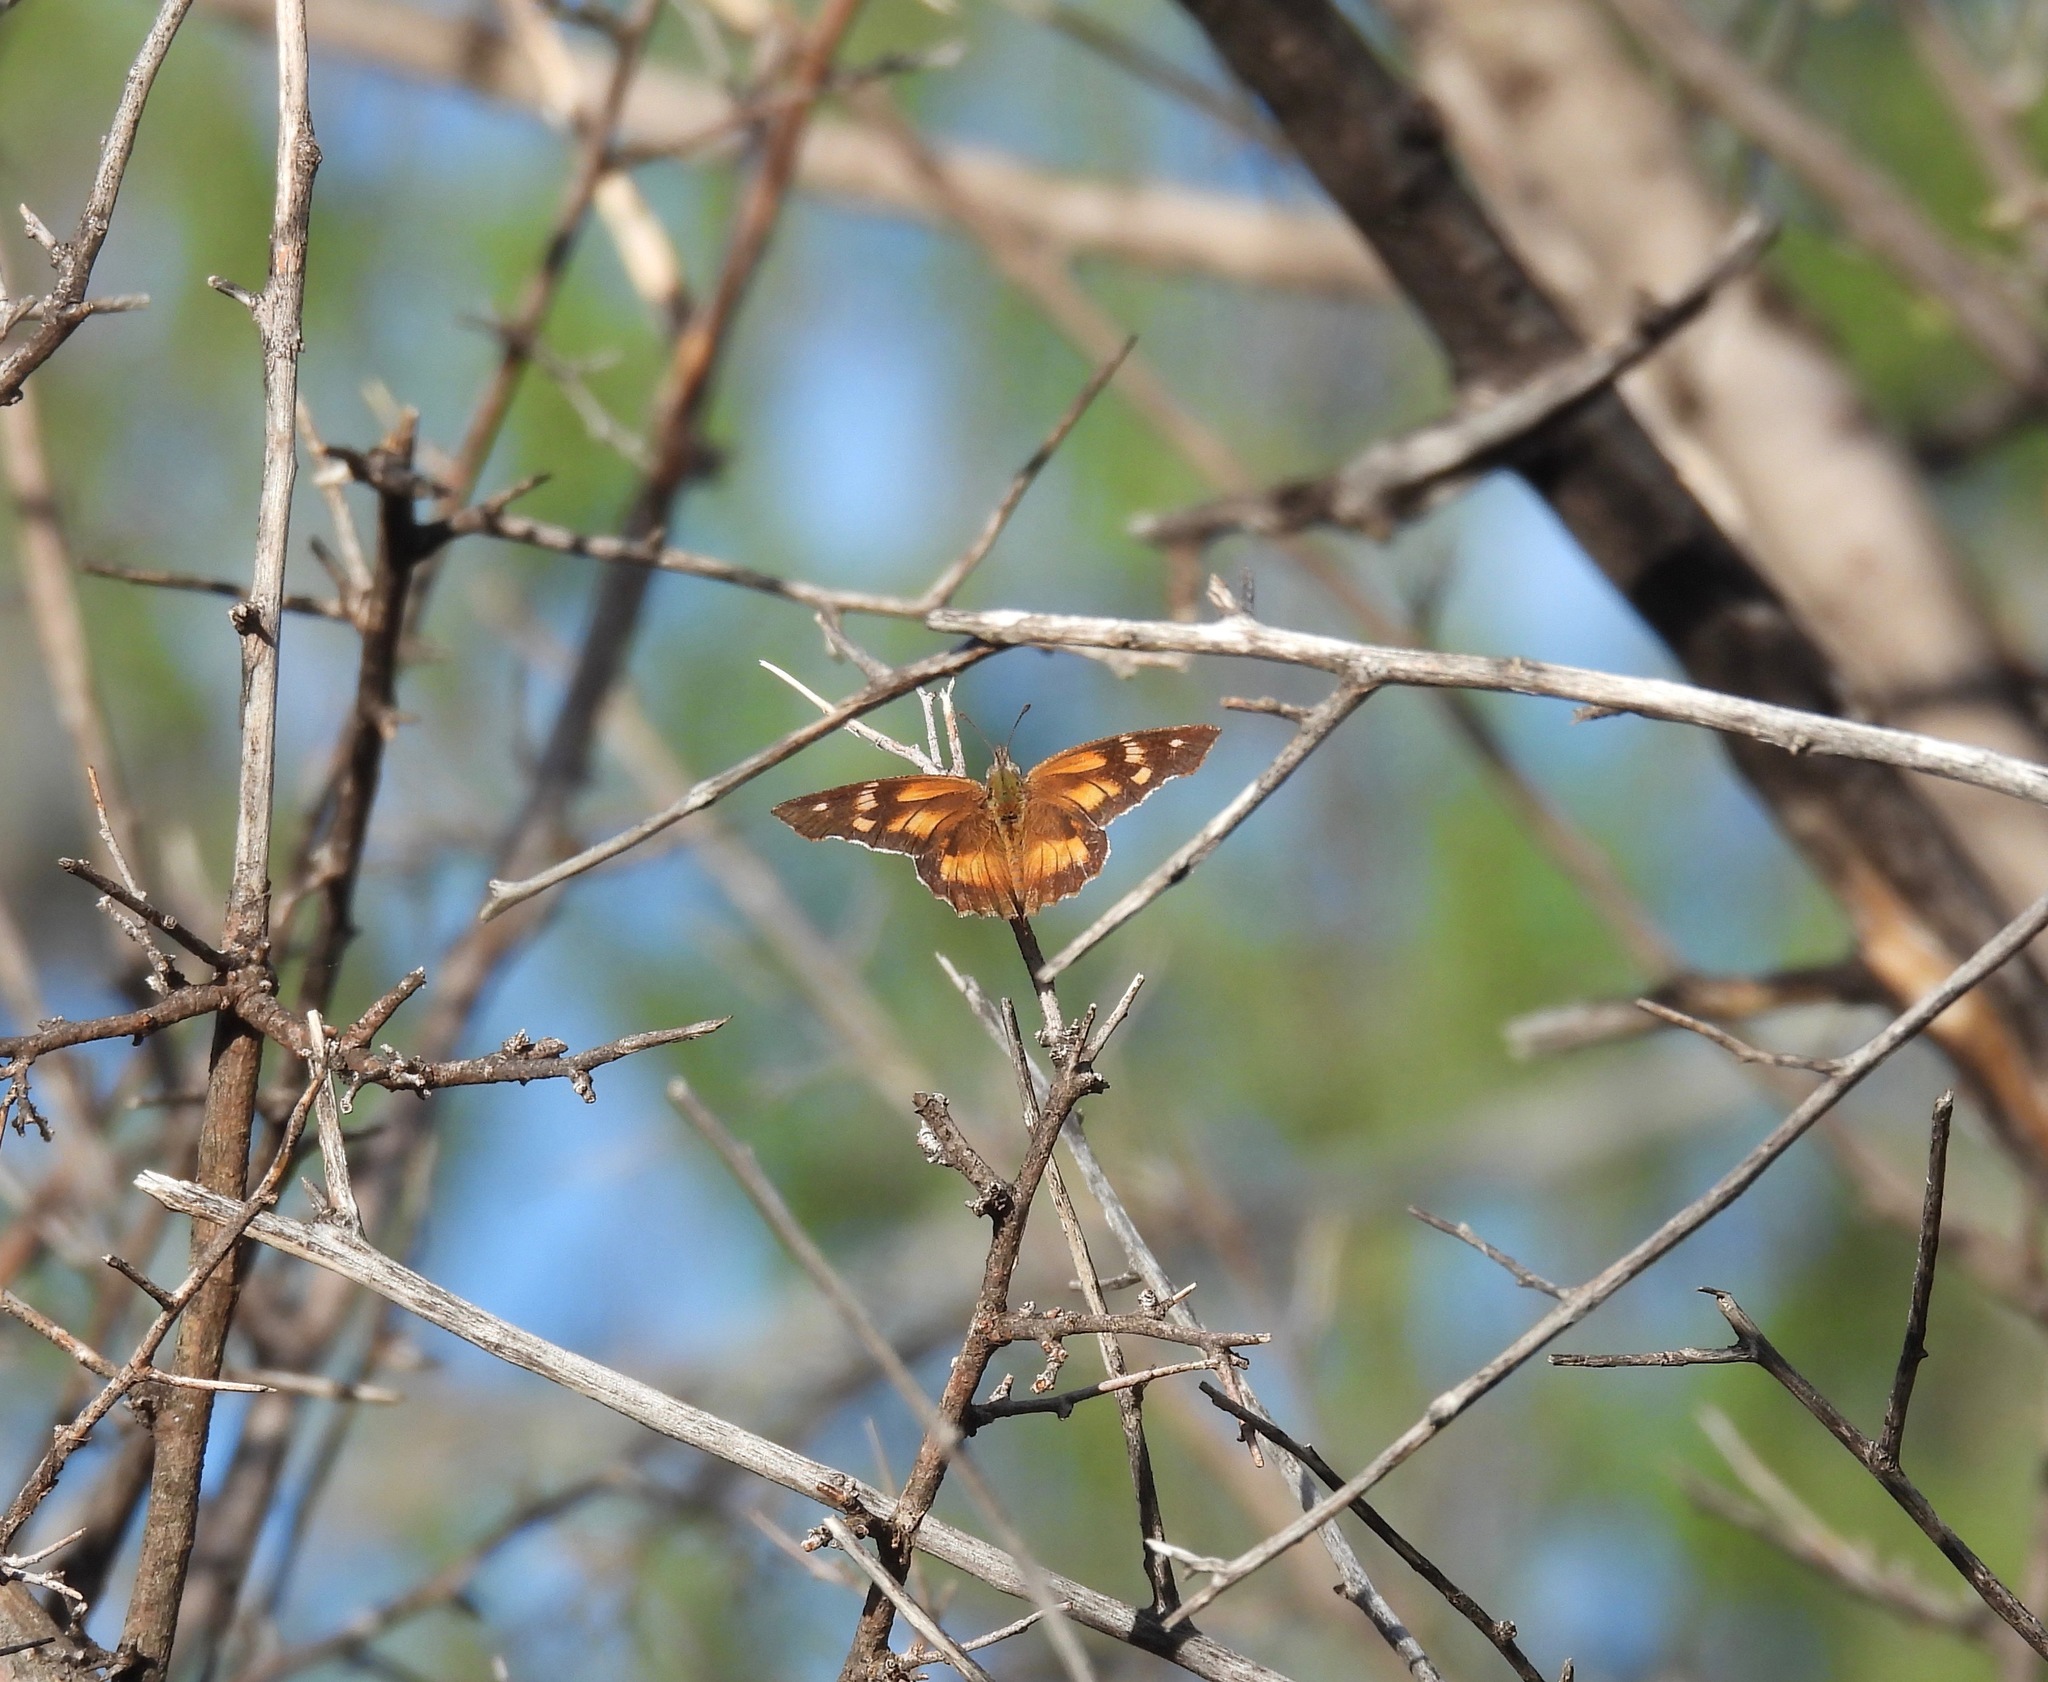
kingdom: Animalia
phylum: Arthropoda
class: Insecta
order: Lepidoptera
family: Nymphalidae
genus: Libytheana
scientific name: Libytheana carinenta
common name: American snout
